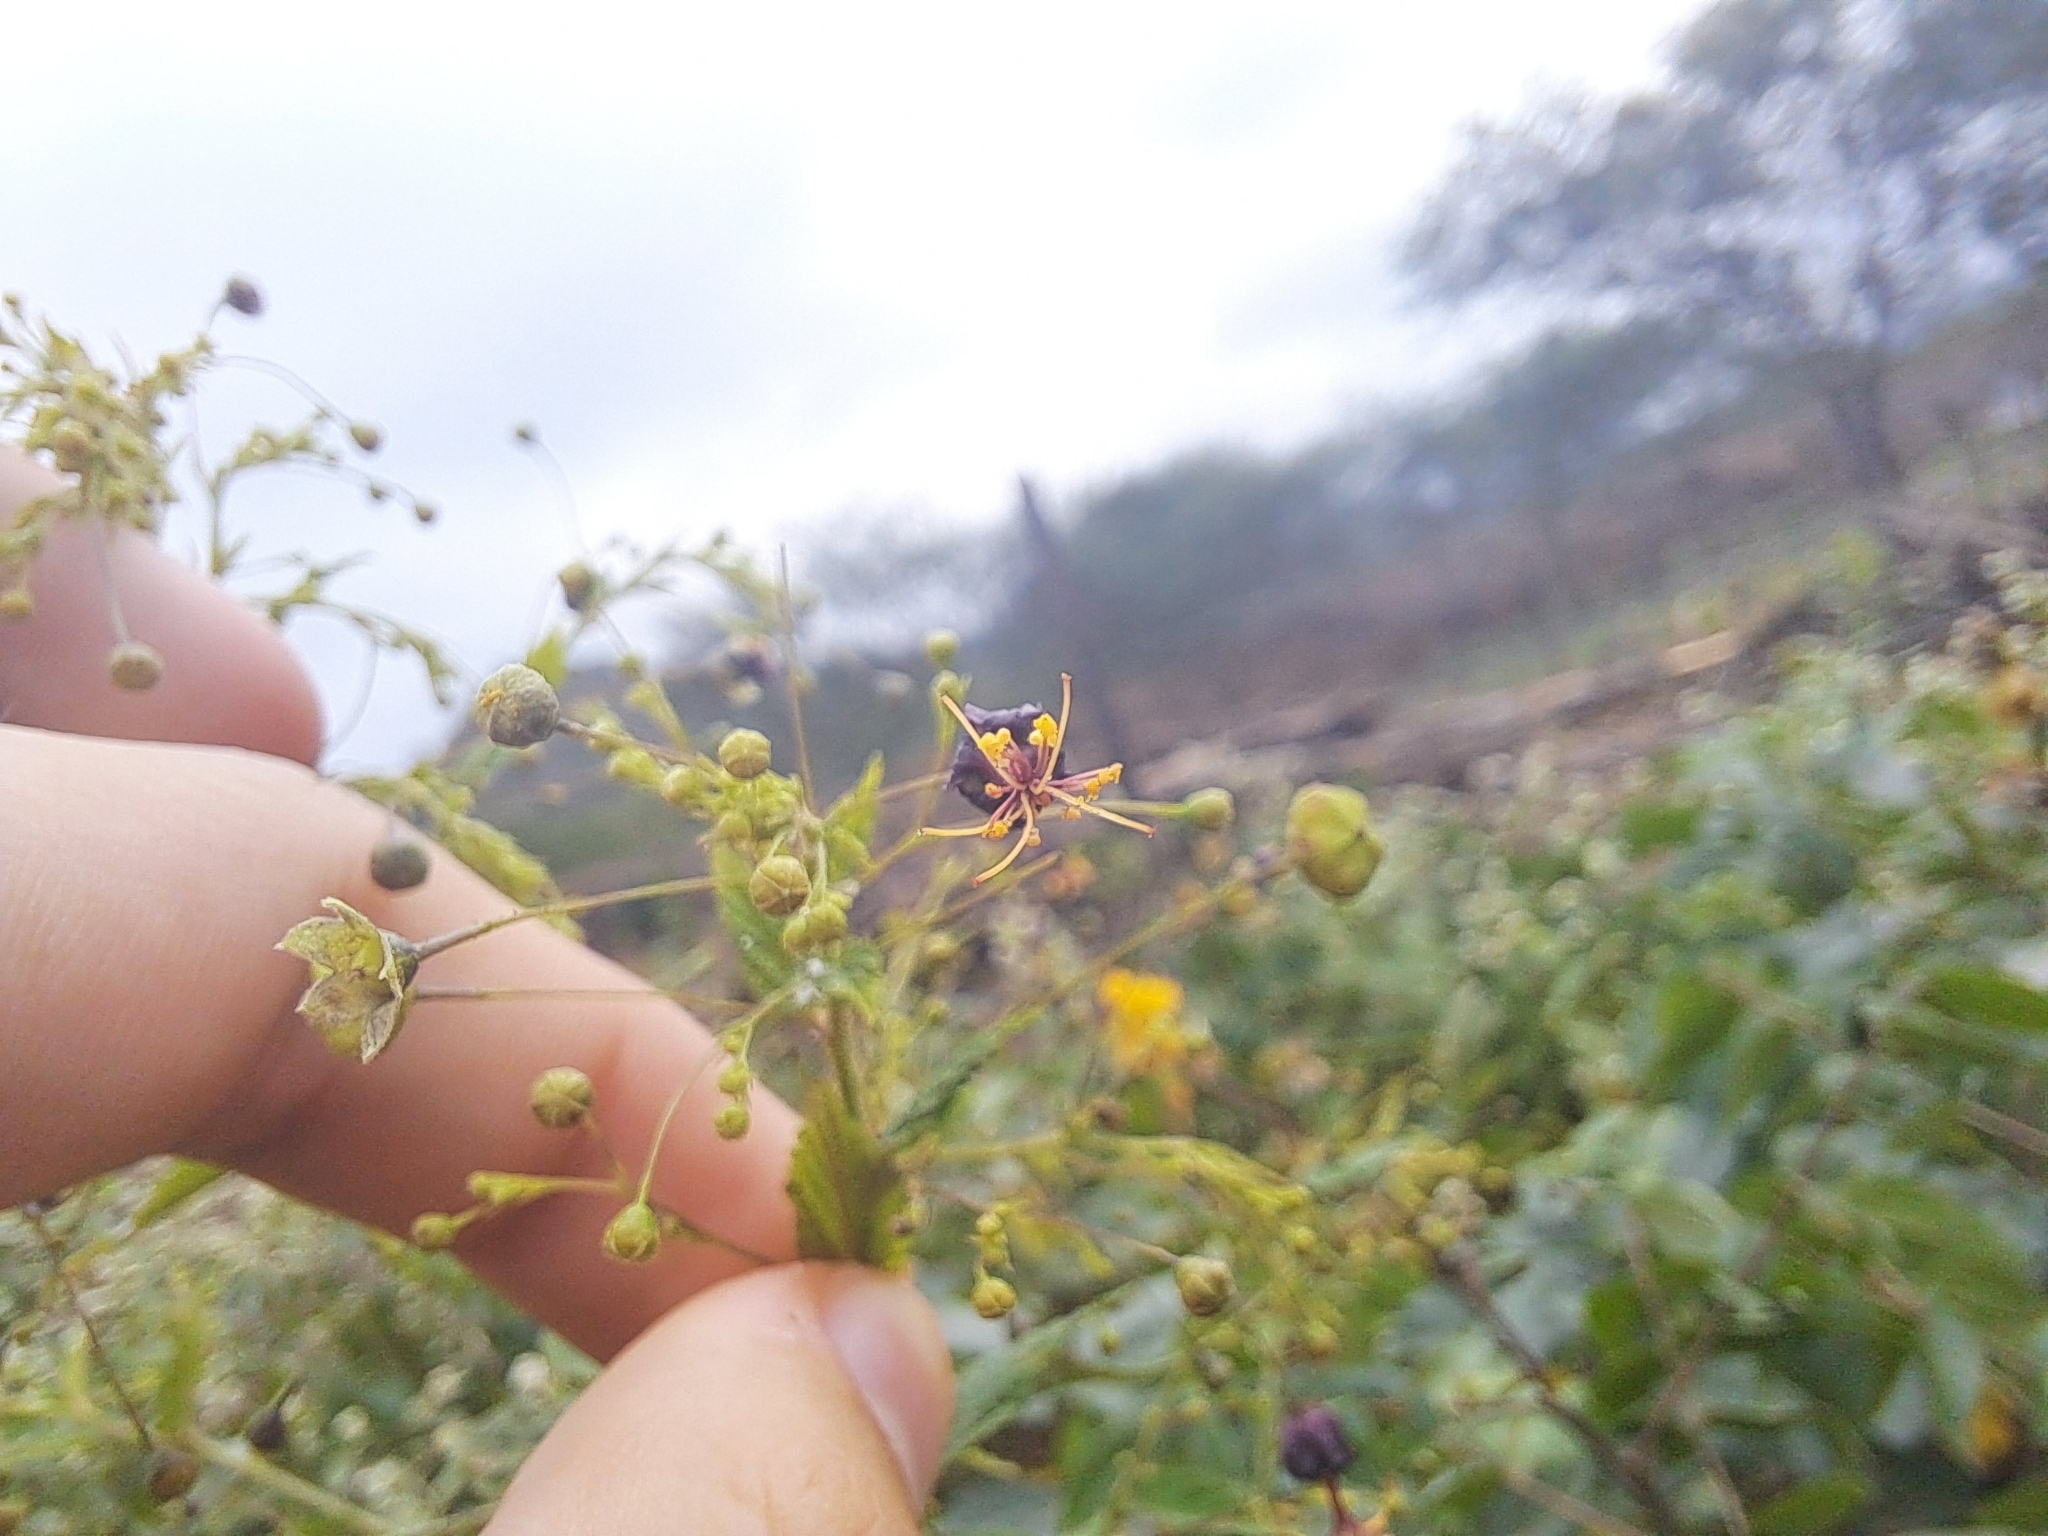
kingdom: Plantae
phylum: Tracheophyta
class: Magnoliopsida
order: Malvales
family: Malvaceae
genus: Sidastrum
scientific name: Sidastrum paniculatum
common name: Panicled sandmallow
